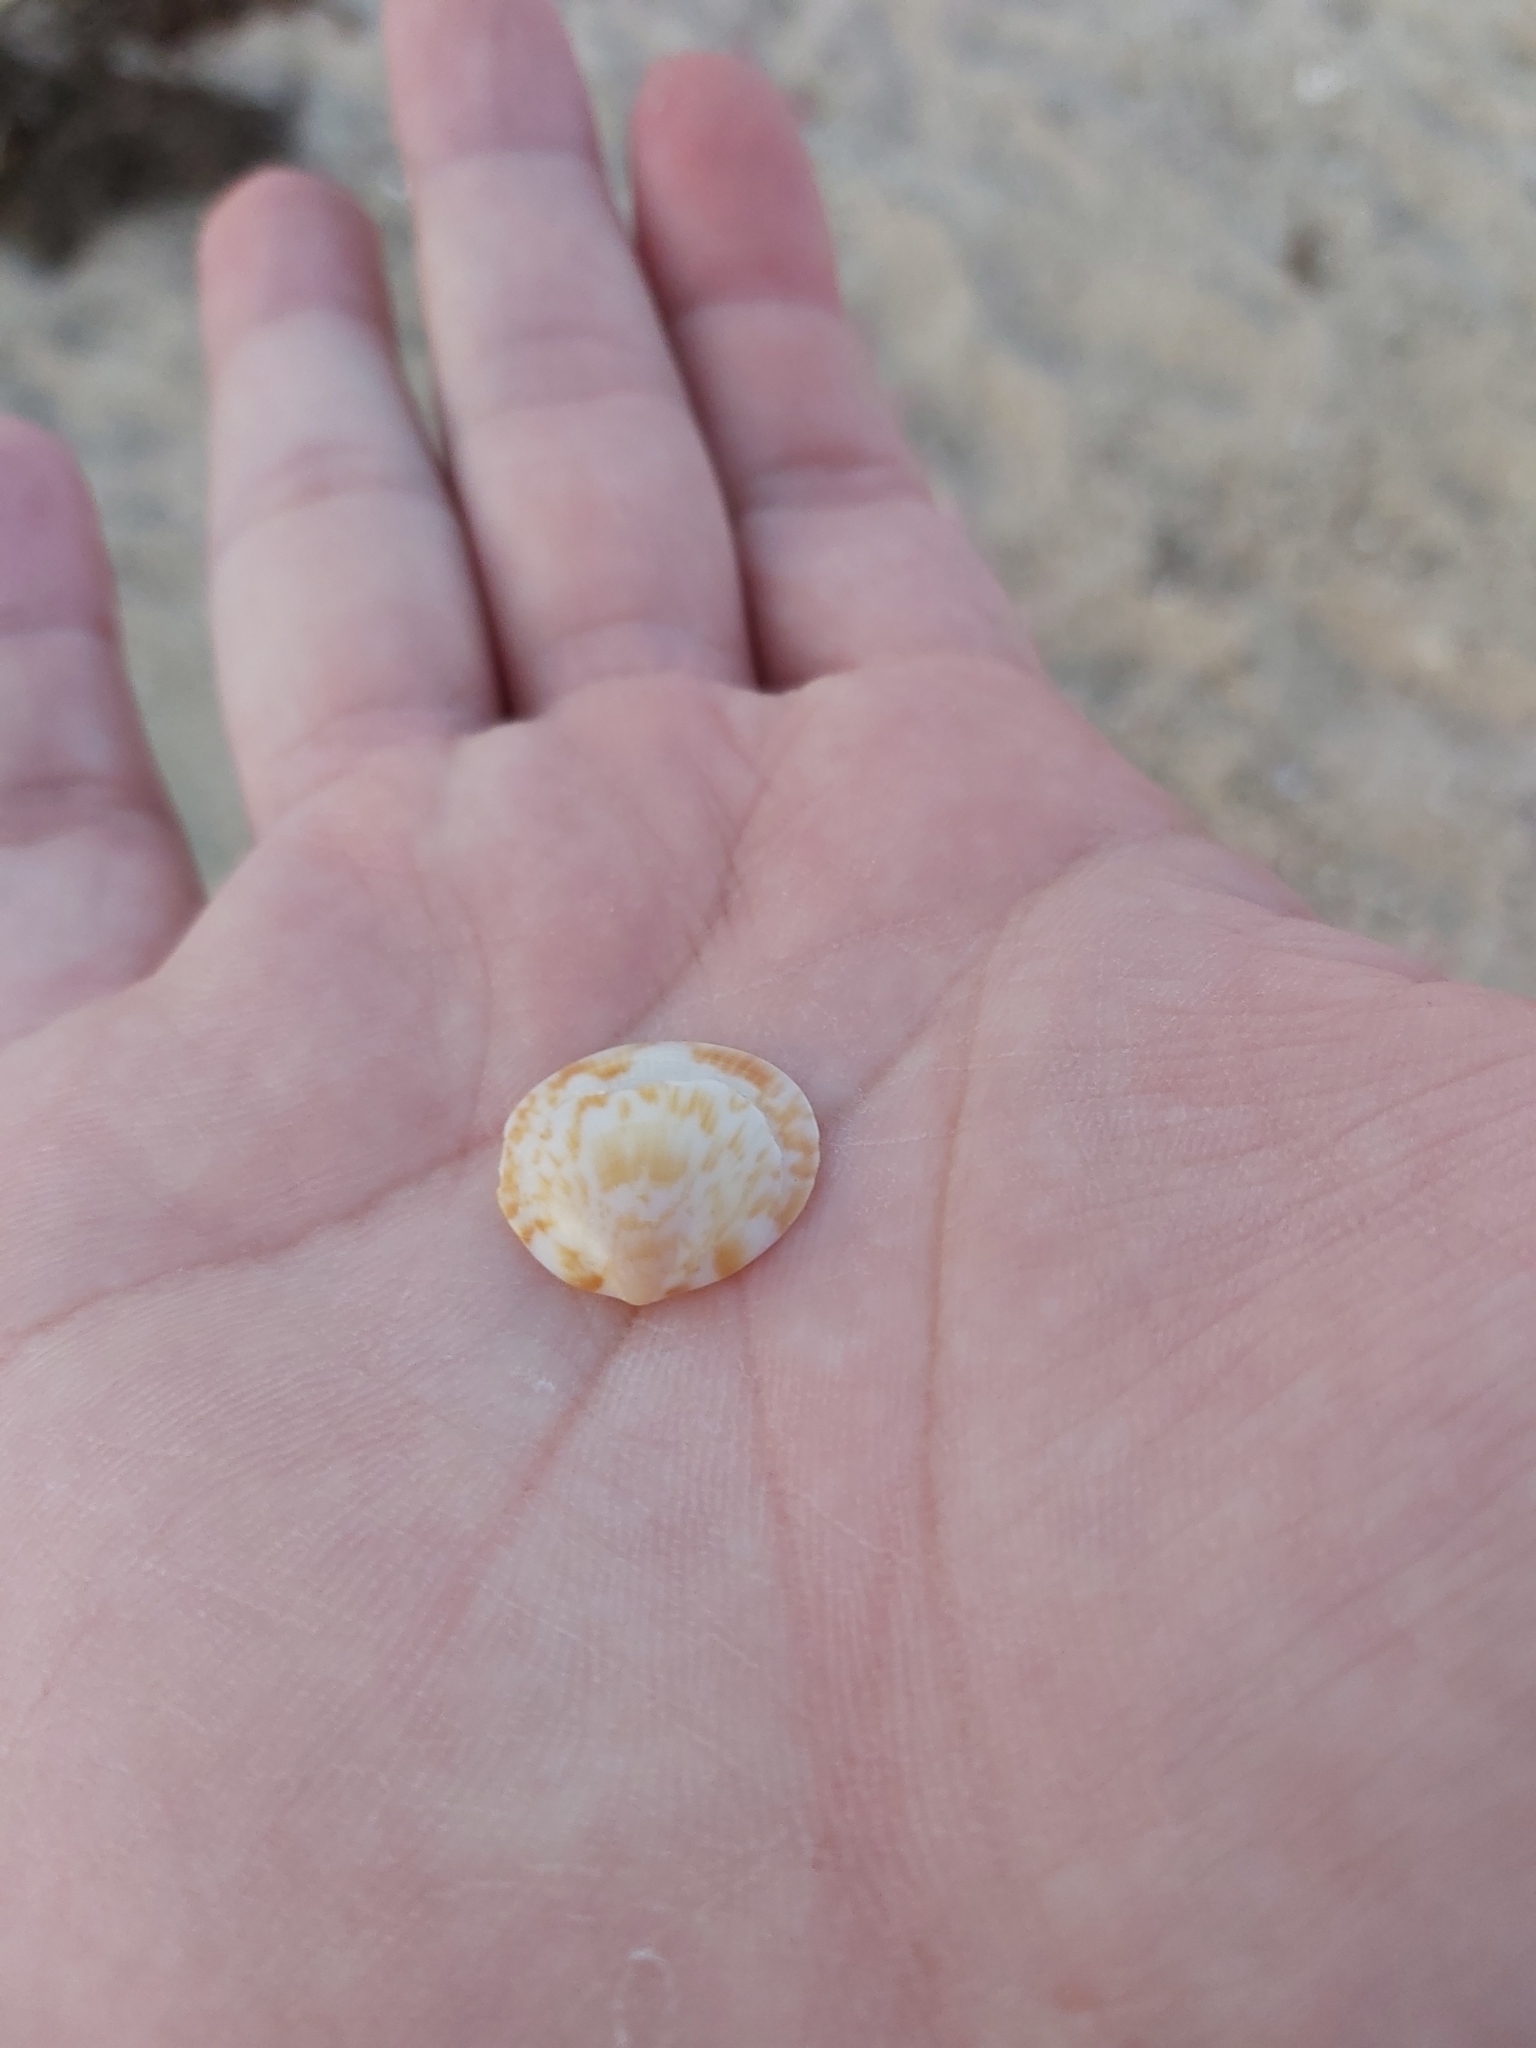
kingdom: Animalia
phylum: Mollusca
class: Bivalvia
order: Arcida
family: Glycymerididae
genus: Glycymeris
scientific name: Glycymeris grayana
